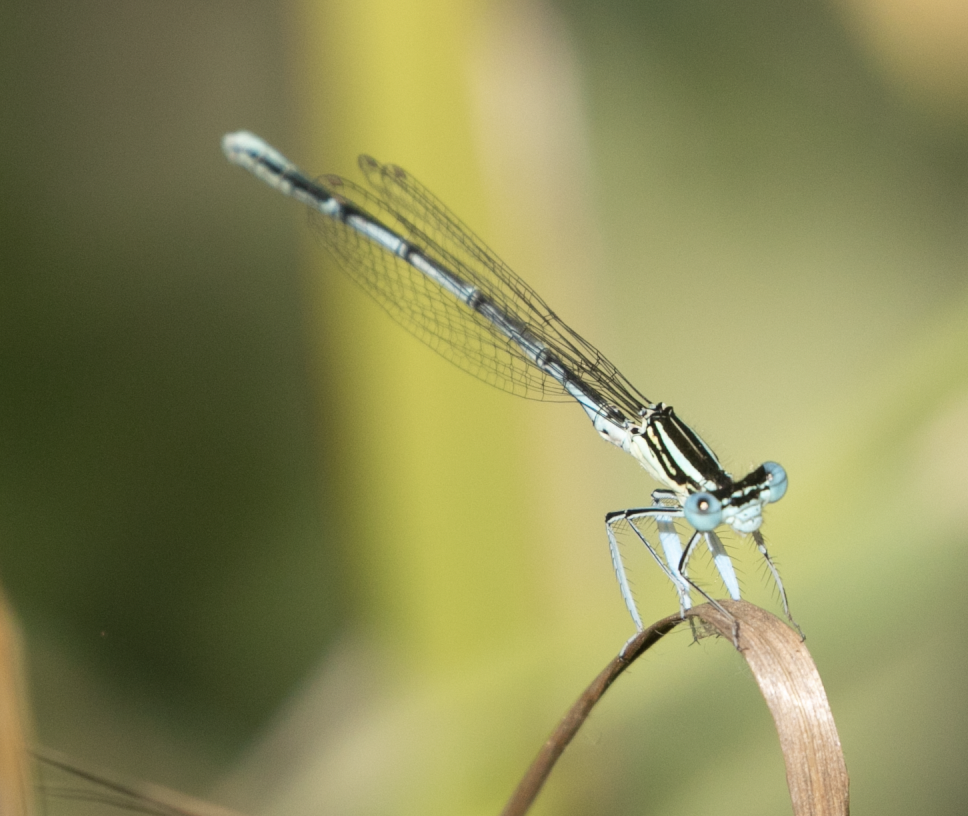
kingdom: Animalia
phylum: Arthropoda
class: Insecta
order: Odonata
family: Platycnemididae
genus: Platycnemis
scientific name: Platycnemis pennipes
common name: White-legged damselfly
